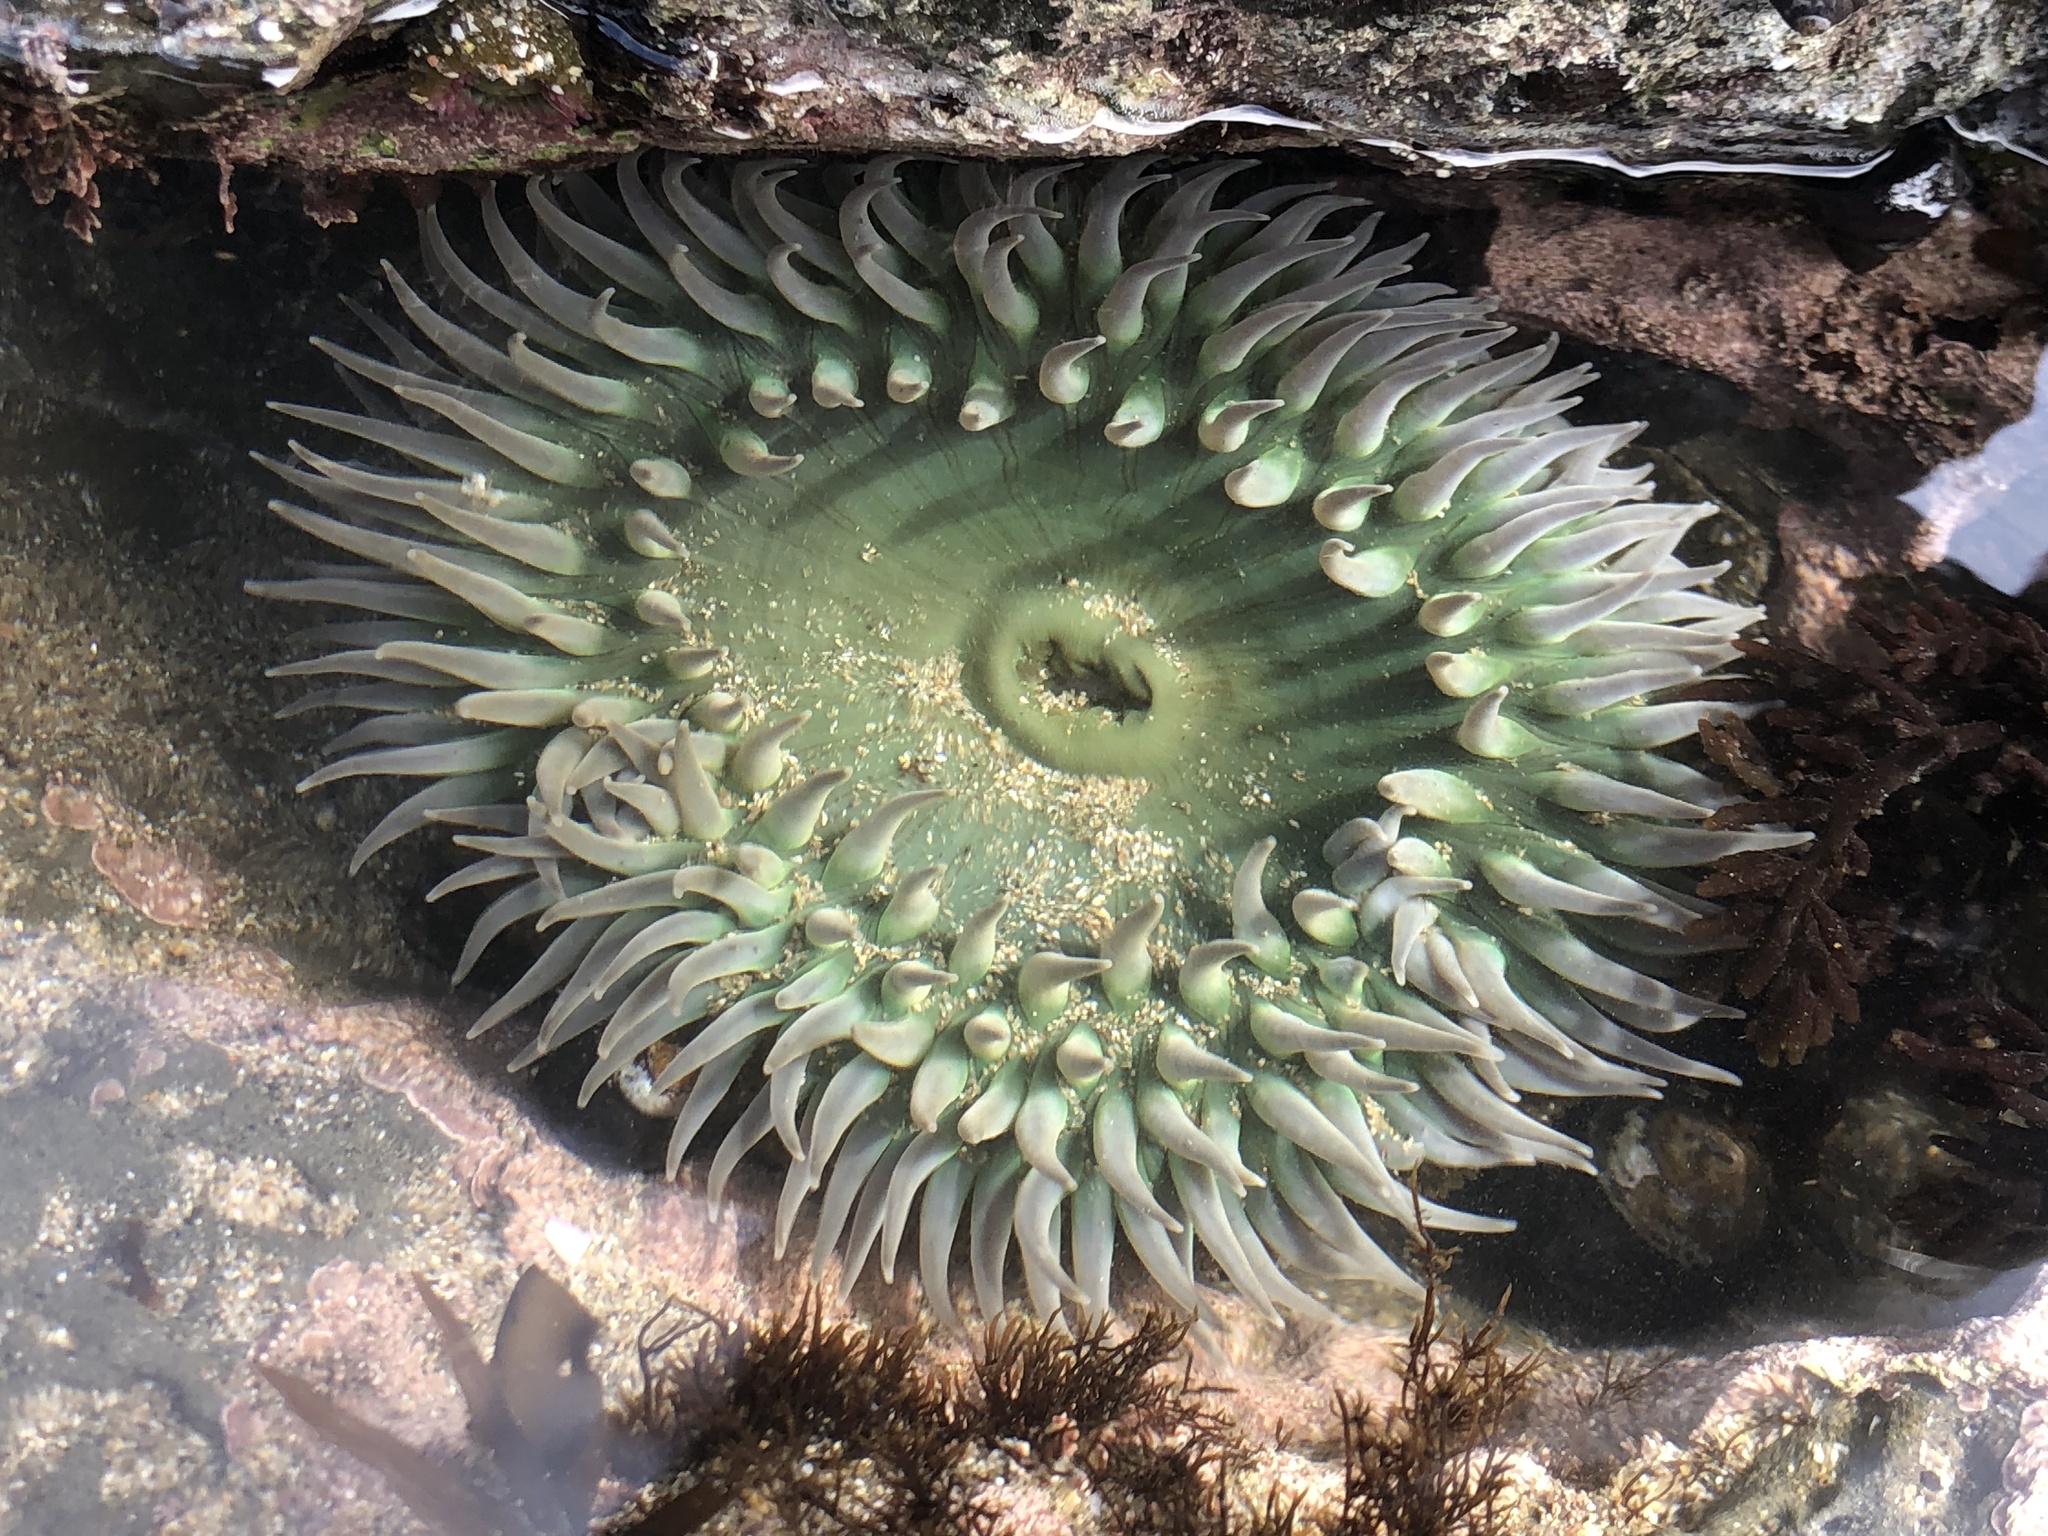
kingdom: Animalia
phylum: Cnidaria
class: Anthozoa
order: Actiniaria
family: Actiniidae
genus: Anthopleura
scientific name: Anthopleura xanthogrammica
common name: Giant green anemone
